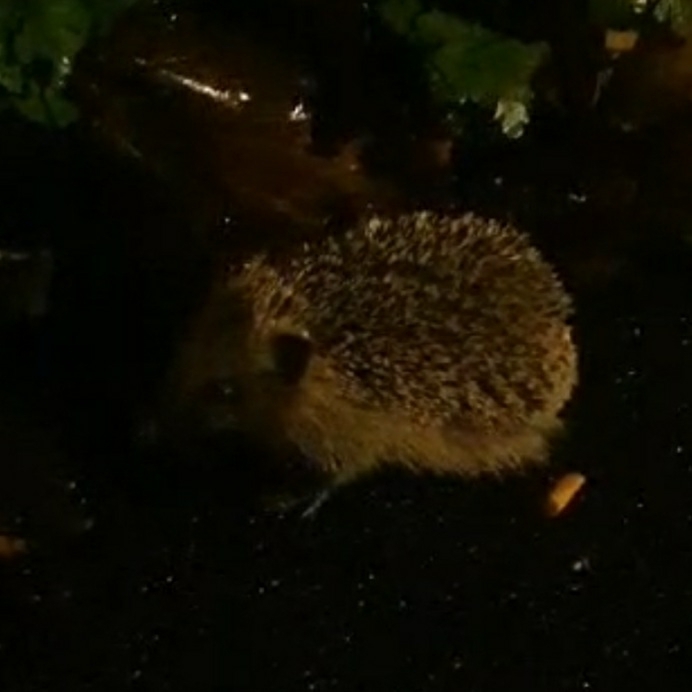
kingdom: Animalia
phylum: Chordata
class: Mammalia
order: Erinaceomorpha
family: Erinaceidae
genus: Erinaceus
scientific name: Erinaceus europaeus
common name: West european hedgehog
